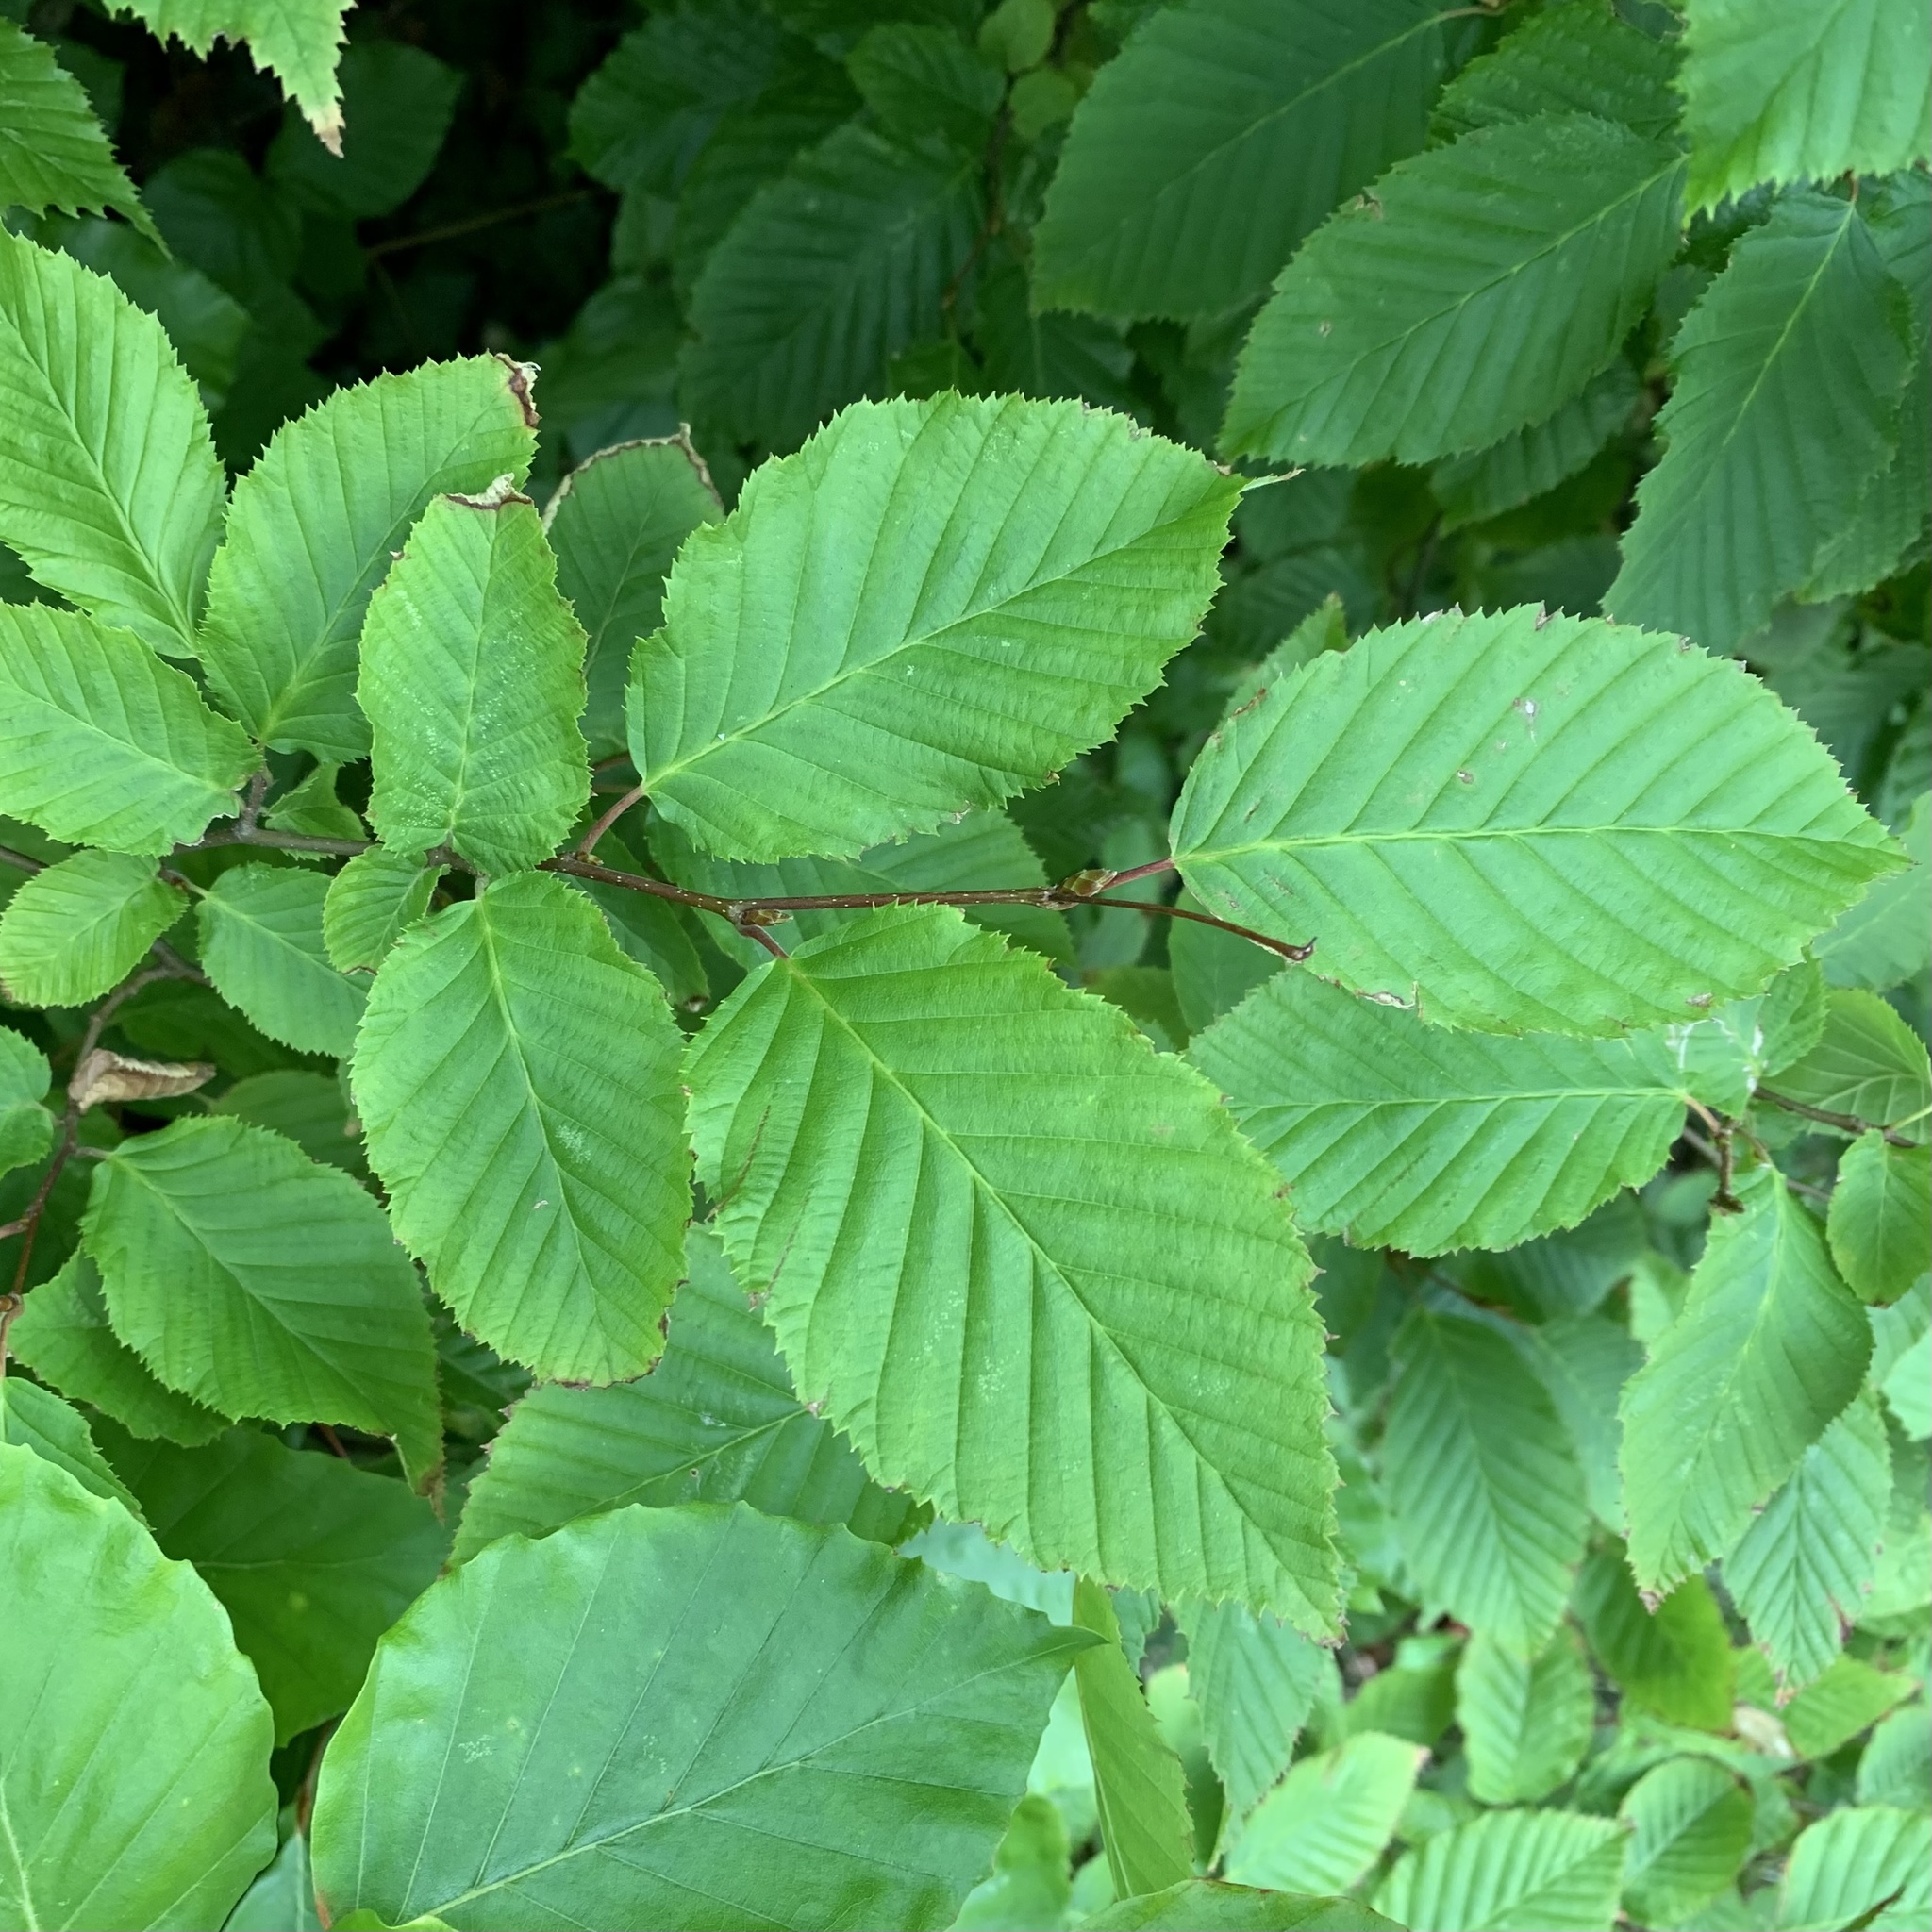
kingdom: Plantae
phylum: Tracheophyta
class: Magnoliopsida
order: Fagales
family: Betulaceae
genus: Carpinus
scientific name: Carpinus betulus
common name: Hornbeam
